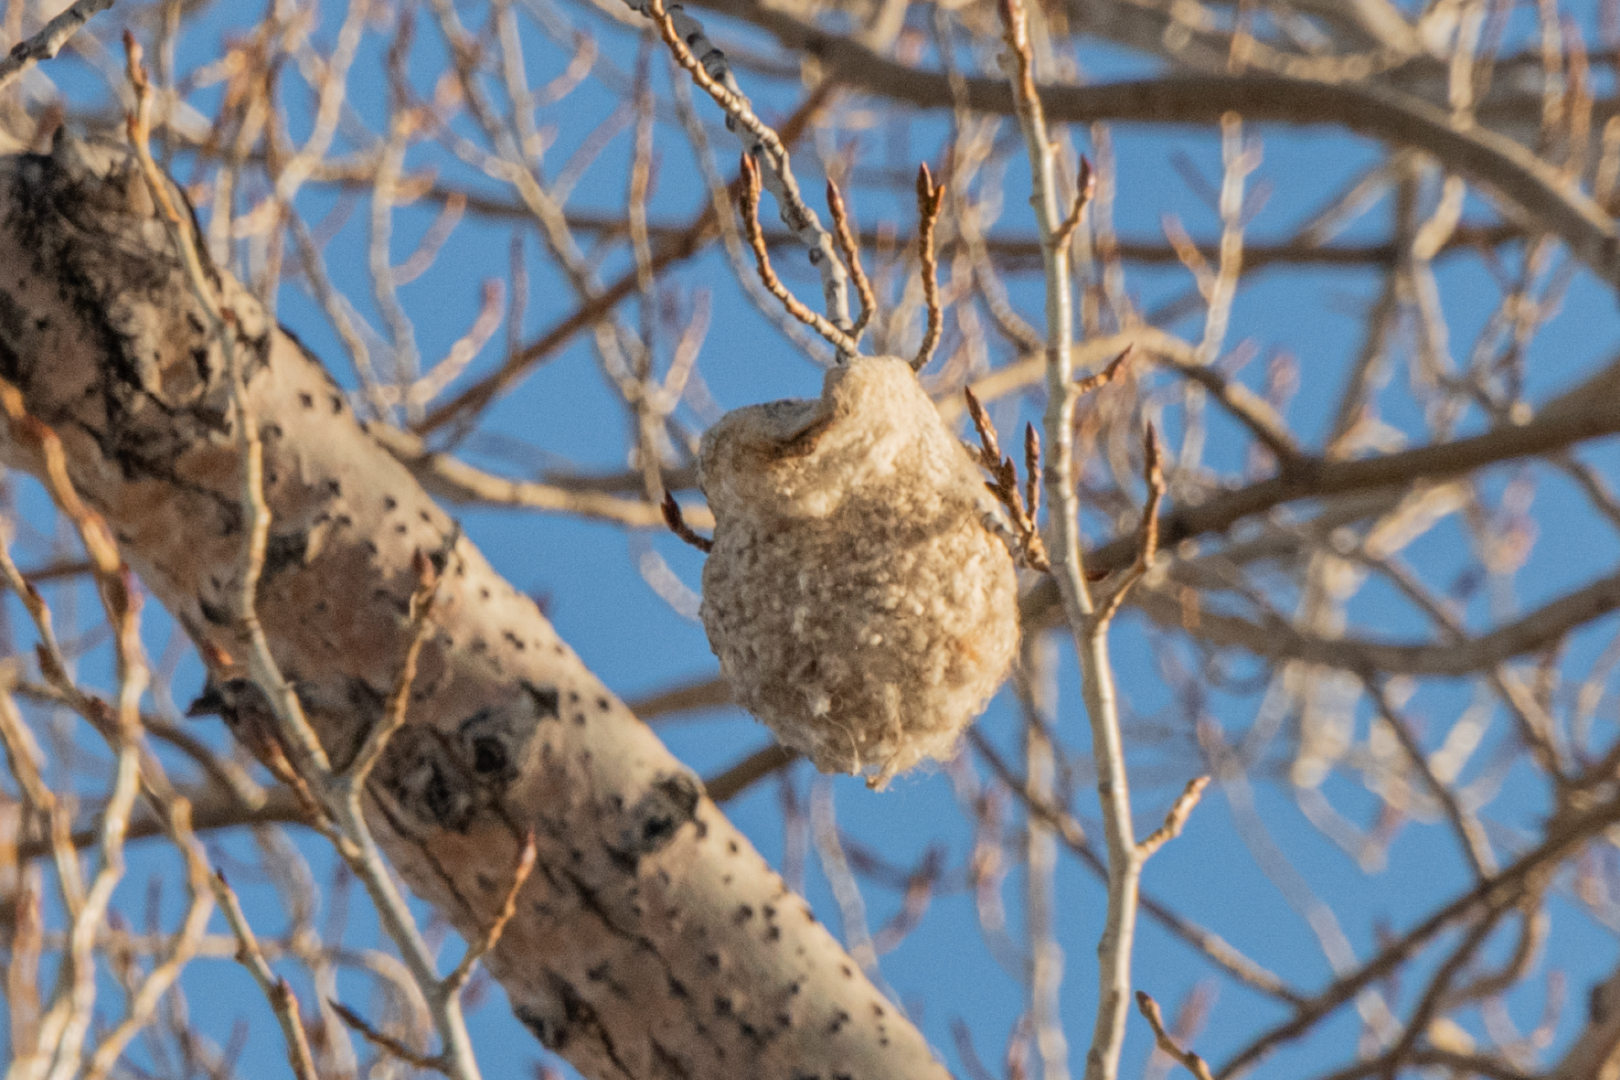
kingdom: Animalia
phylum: Chordata
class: Aves
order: Passeriformes
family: Remizidae
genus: Remiz
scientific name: Remiz coronatus
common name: White-crowned penduline tit
